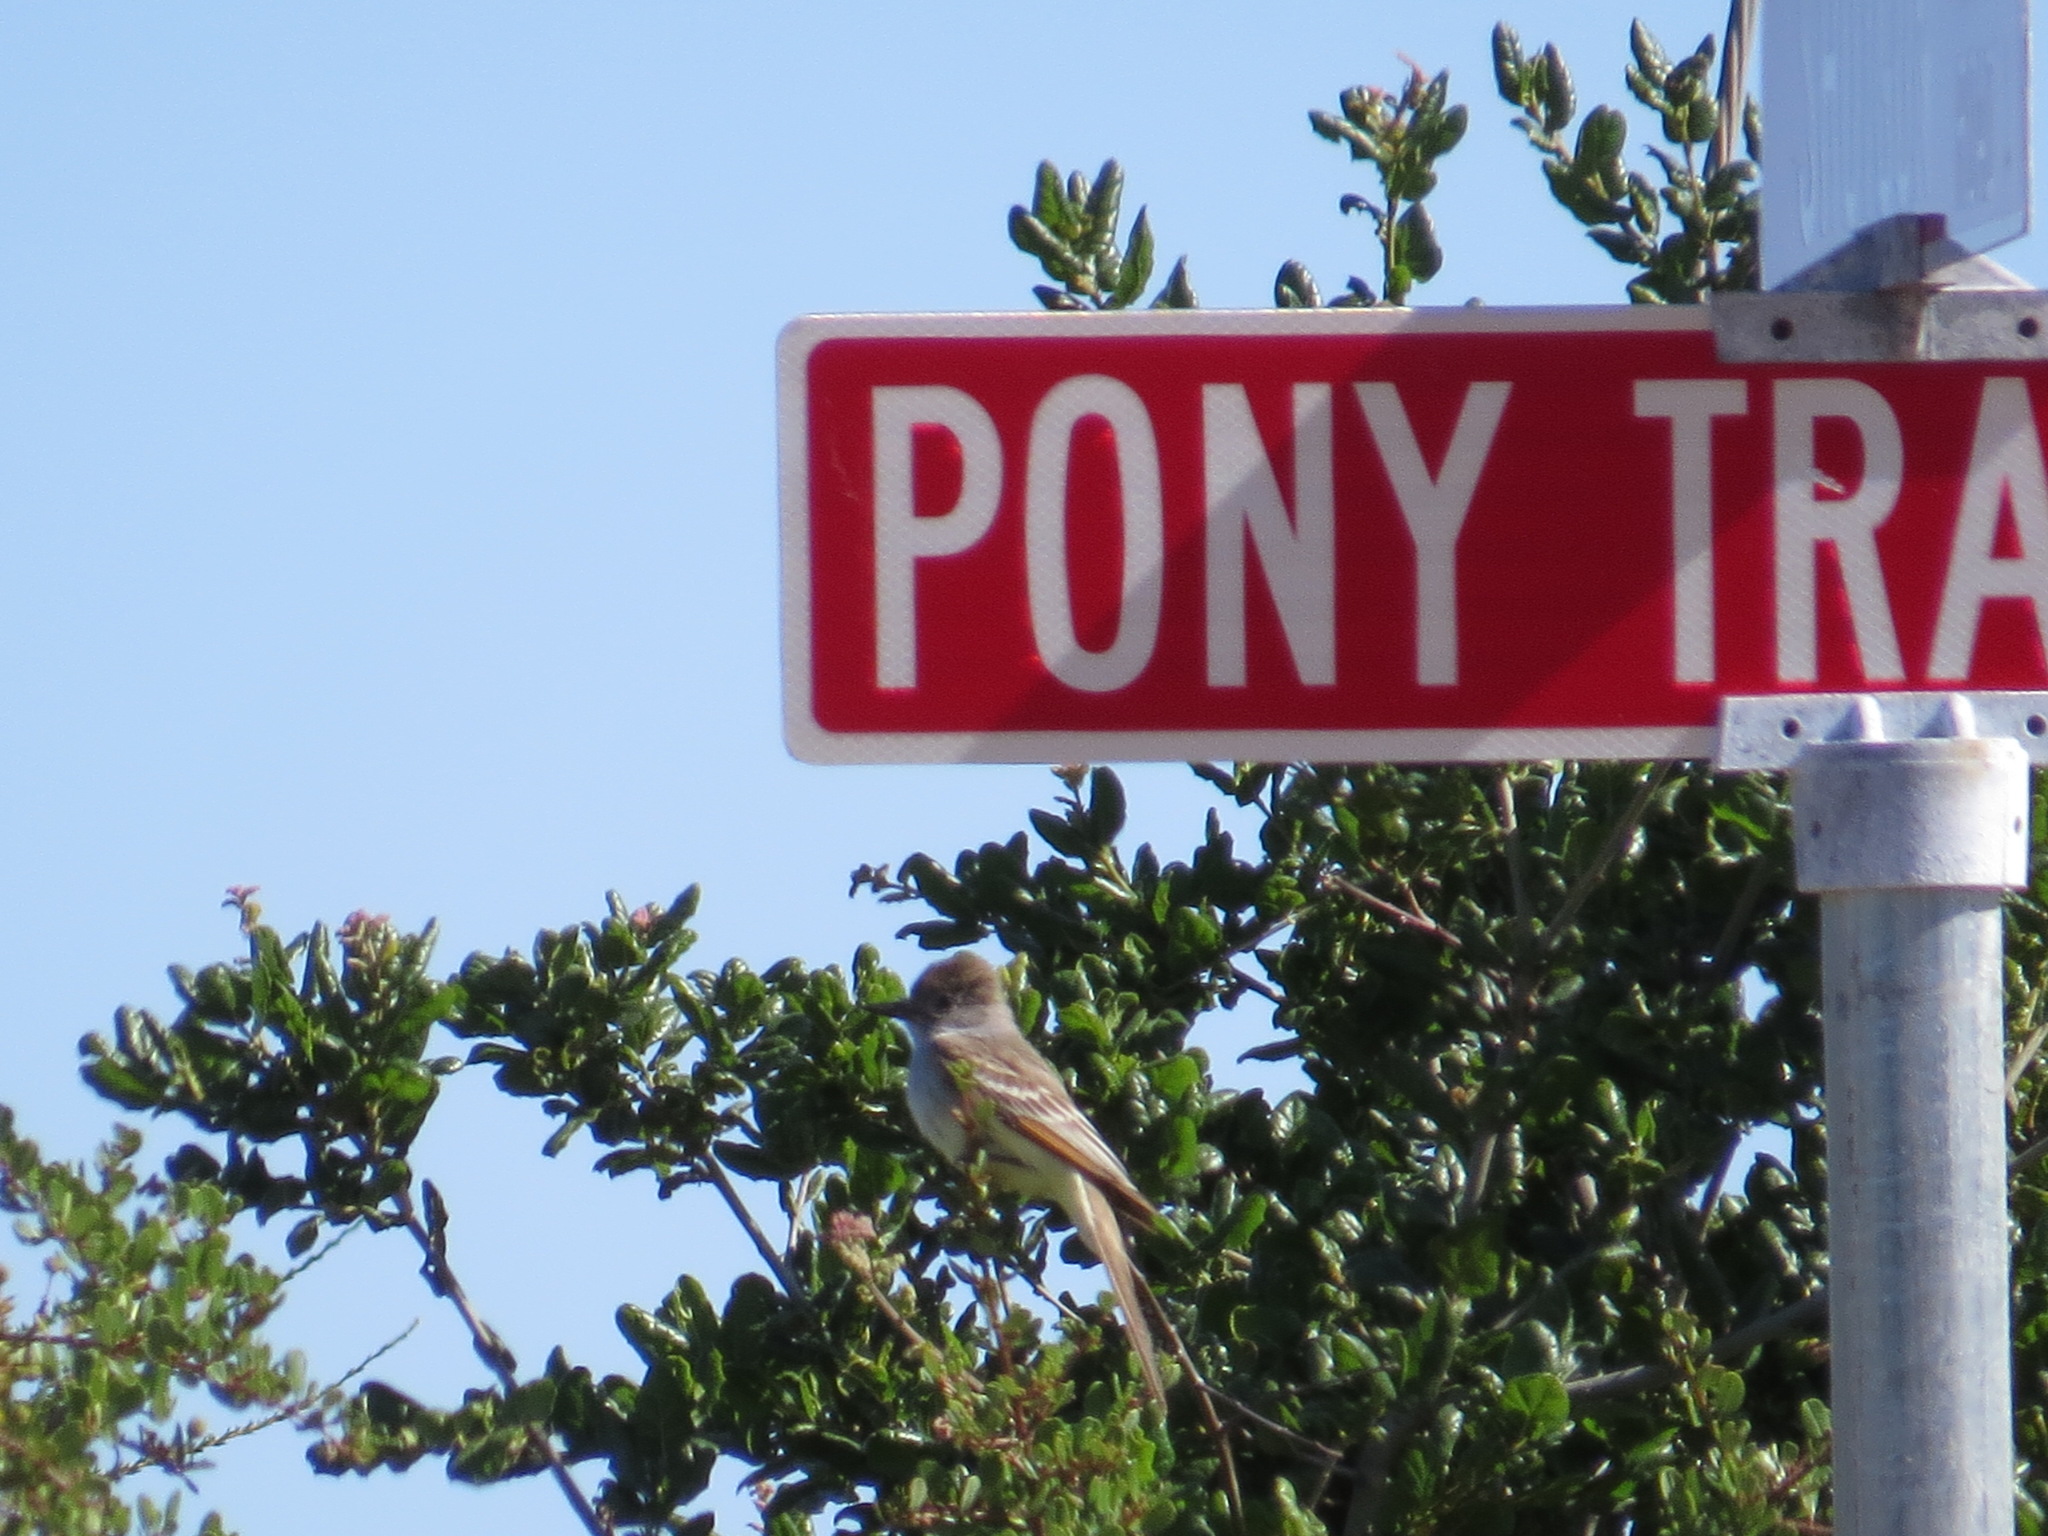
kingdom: Animalia
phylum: Chordata
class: Aves
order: Passeriformes
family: Tyrannidae
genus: Myiarchus
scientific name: Myiarchus cinerascens
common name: Ash-throated flycatcher
